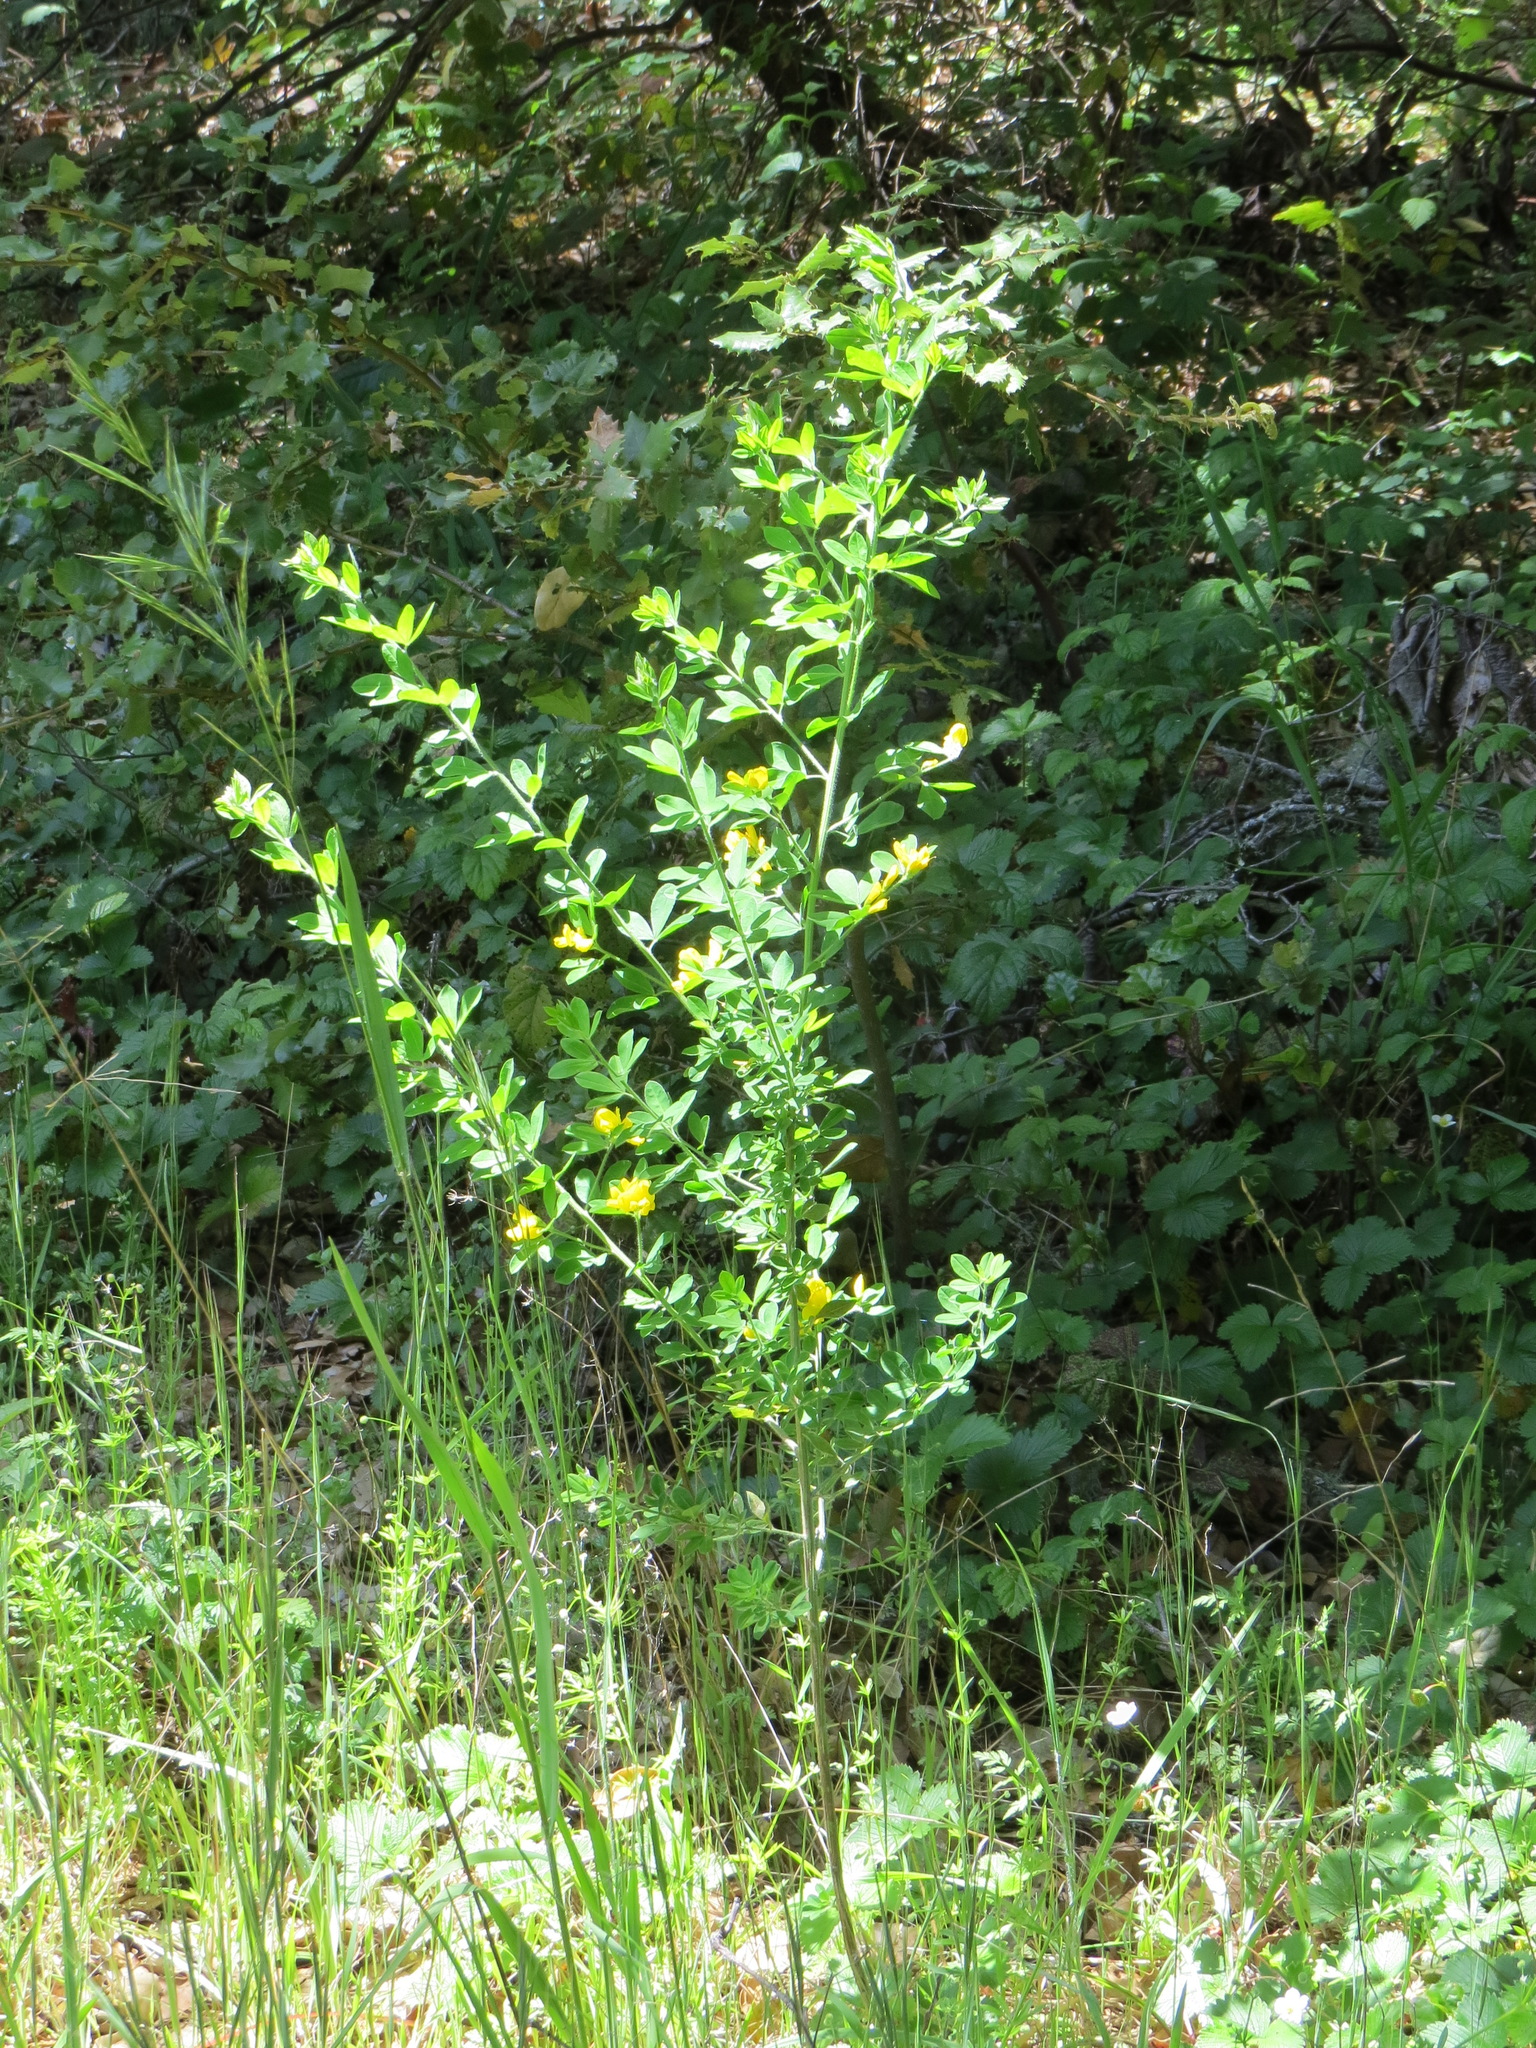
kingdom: Plantae
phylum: Tracheophyta
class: Magnoliopsida
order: Fabales
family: Fabaceae
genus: Genista
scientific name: Genista monspessulana
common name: Montpellier broom
